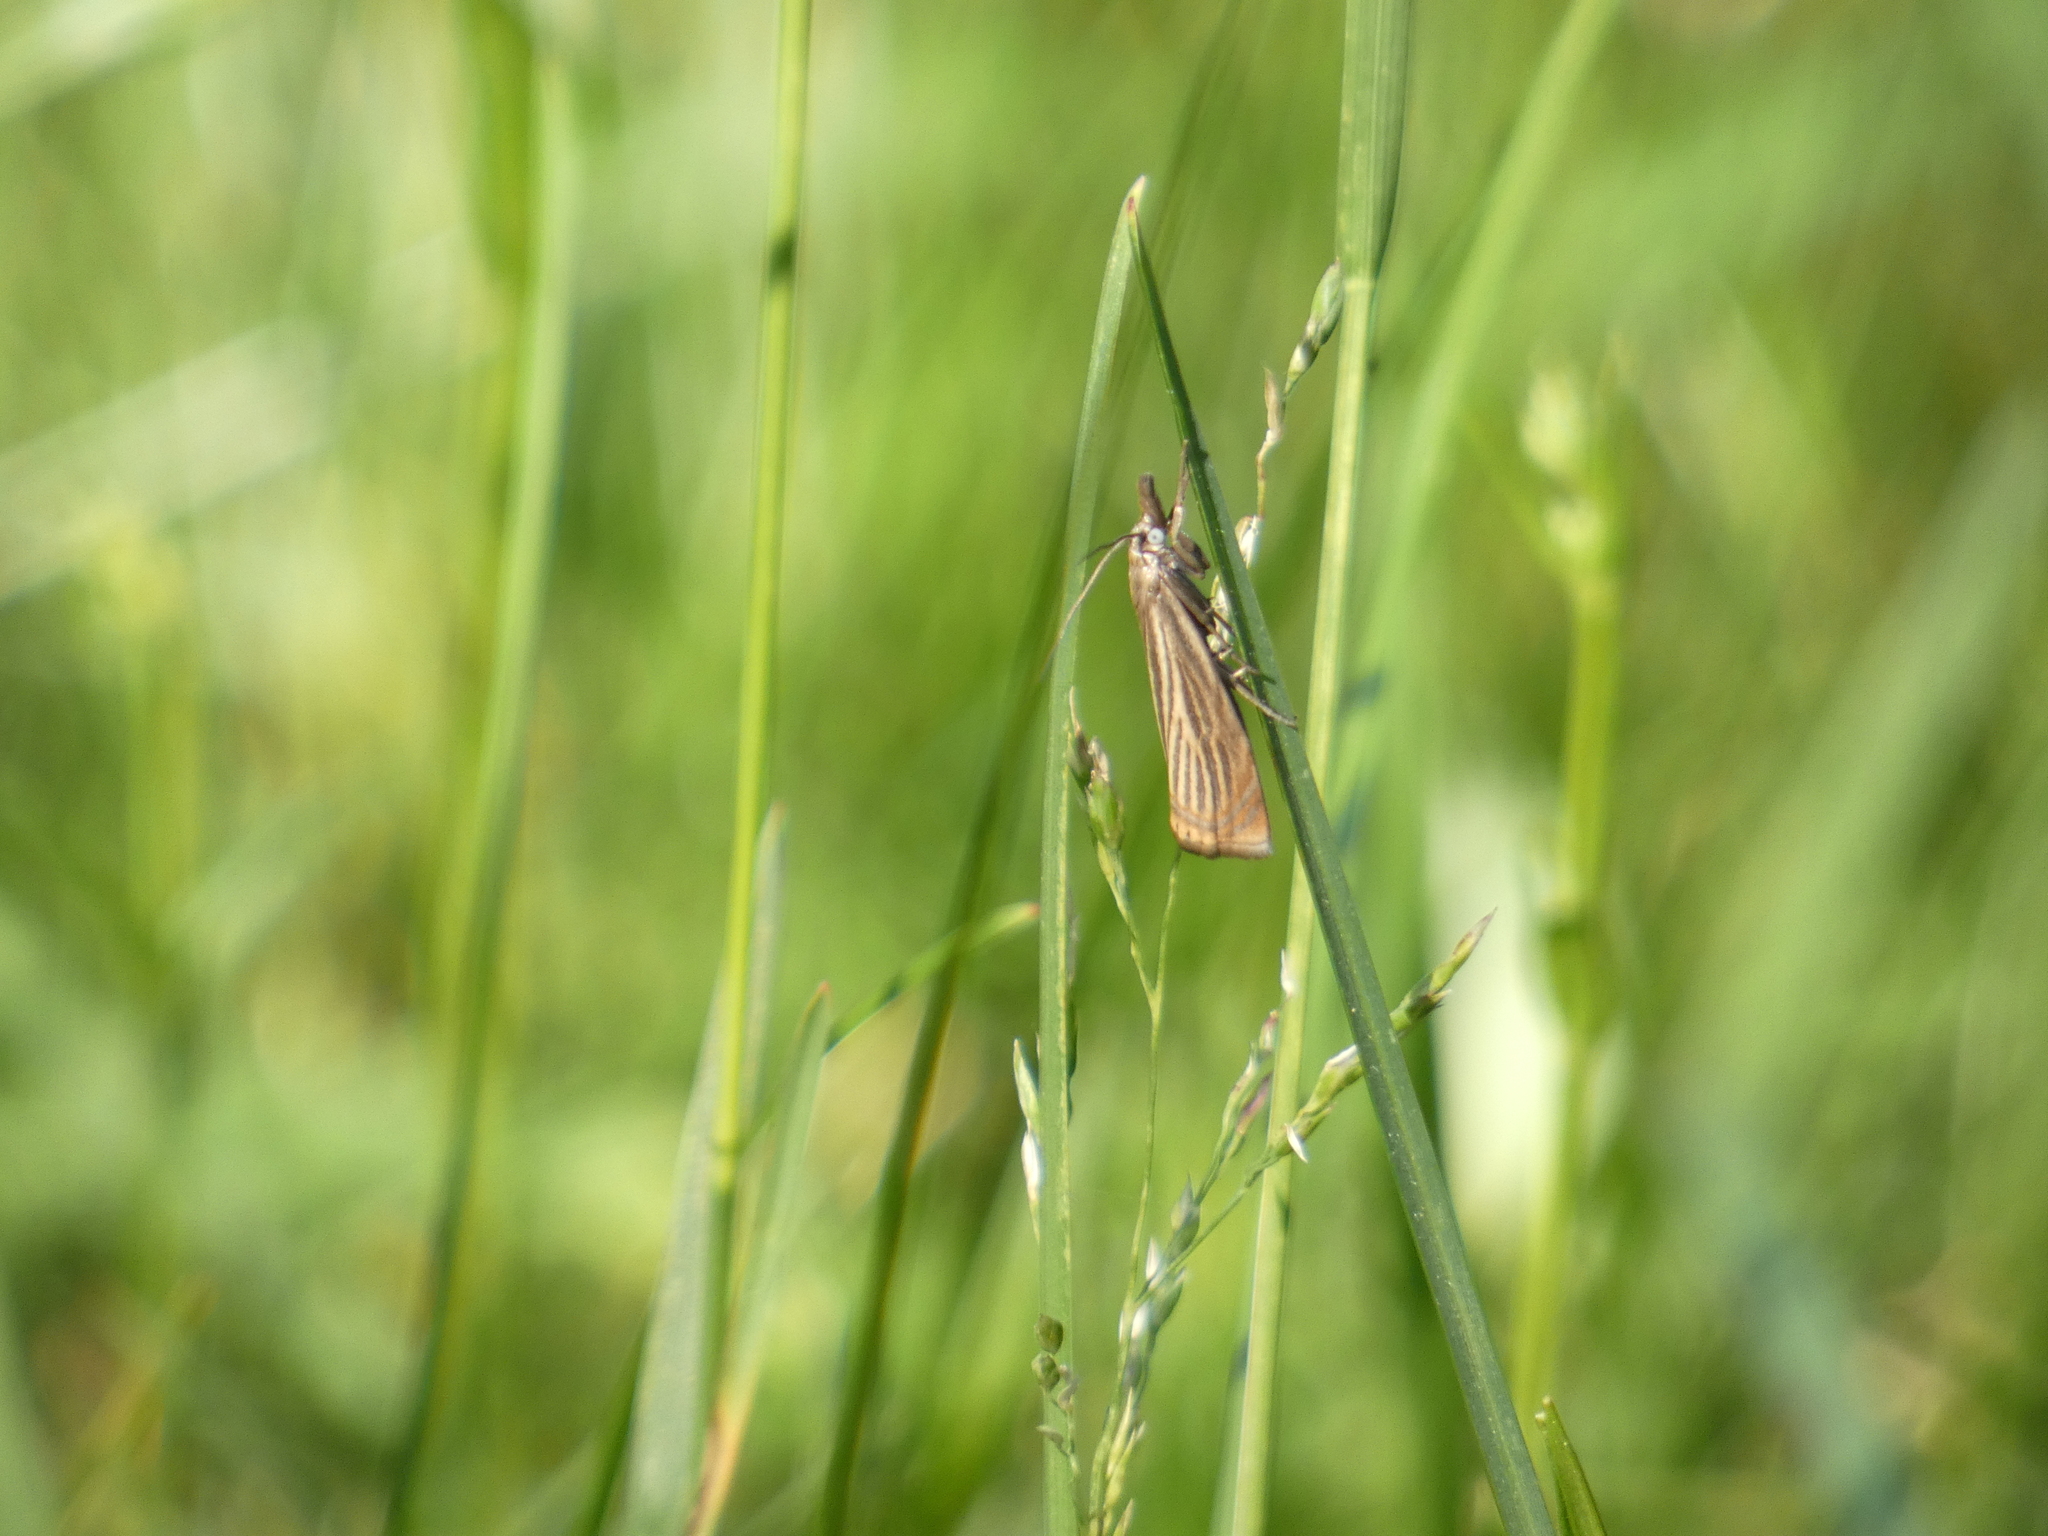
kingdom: Animalia
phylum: Arthropoda
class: Insecta
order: Lepidoptera
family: Crambidae
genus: Chrysoteuchia
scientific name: Chrysoteuchia culmella
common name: Garden grass-veneer
